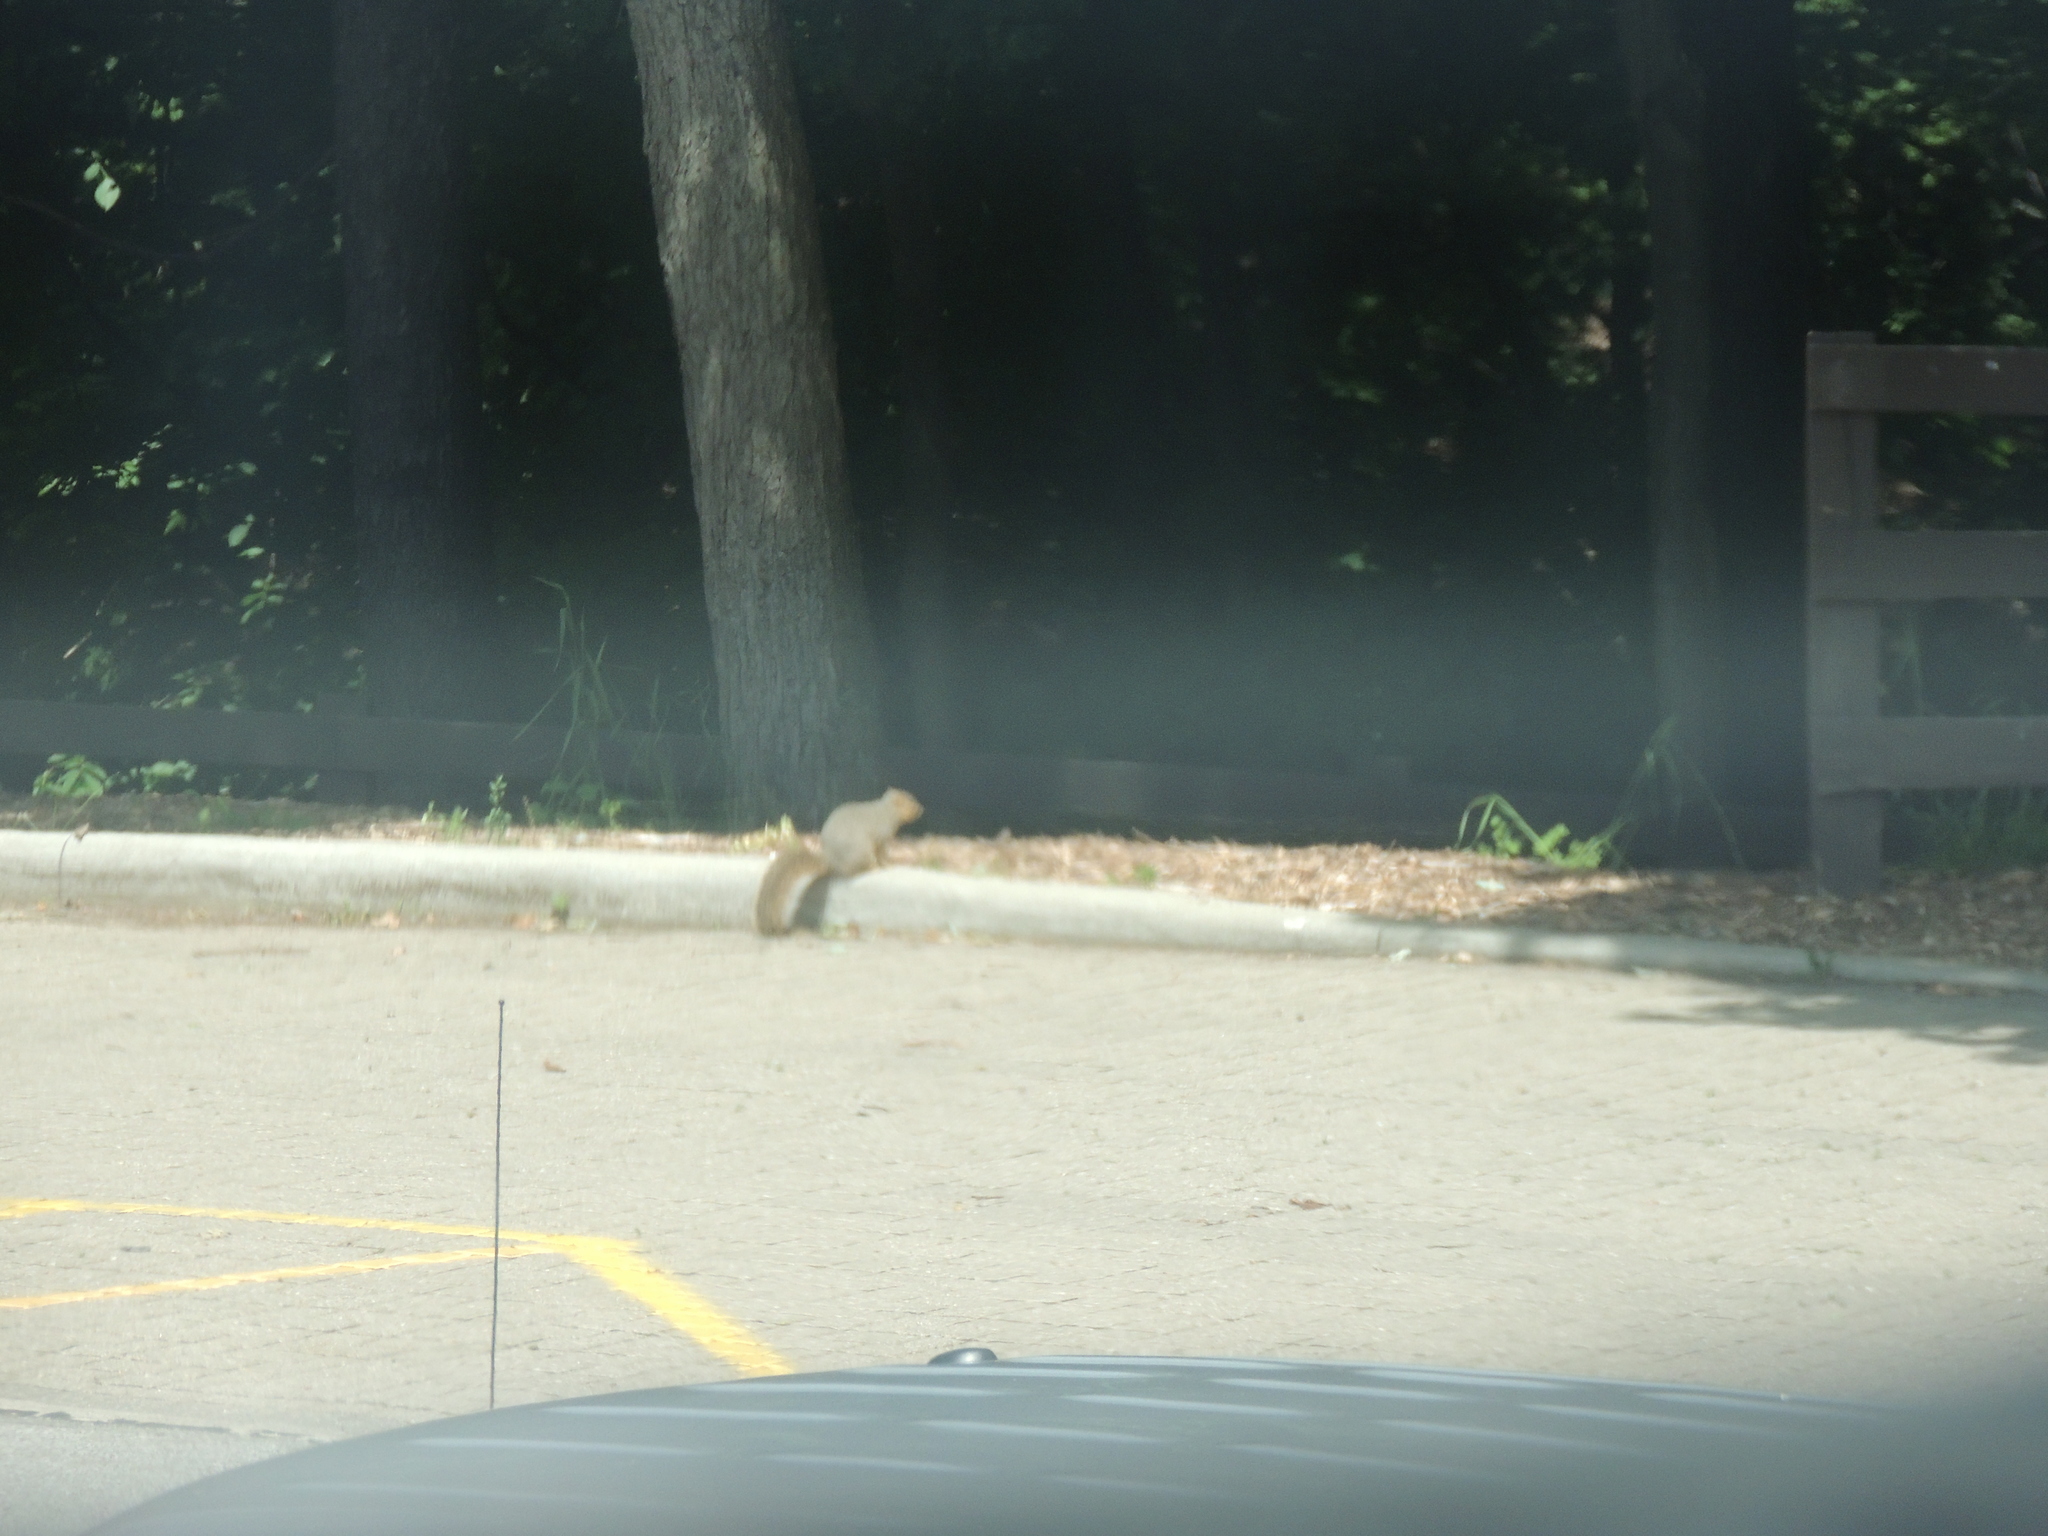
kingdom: Animalia
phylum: Chordata
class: Mammalia
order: Rodentia
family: Sciuridae
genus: Sciurus
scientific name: Sciurus niger
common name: Fox squirrel
